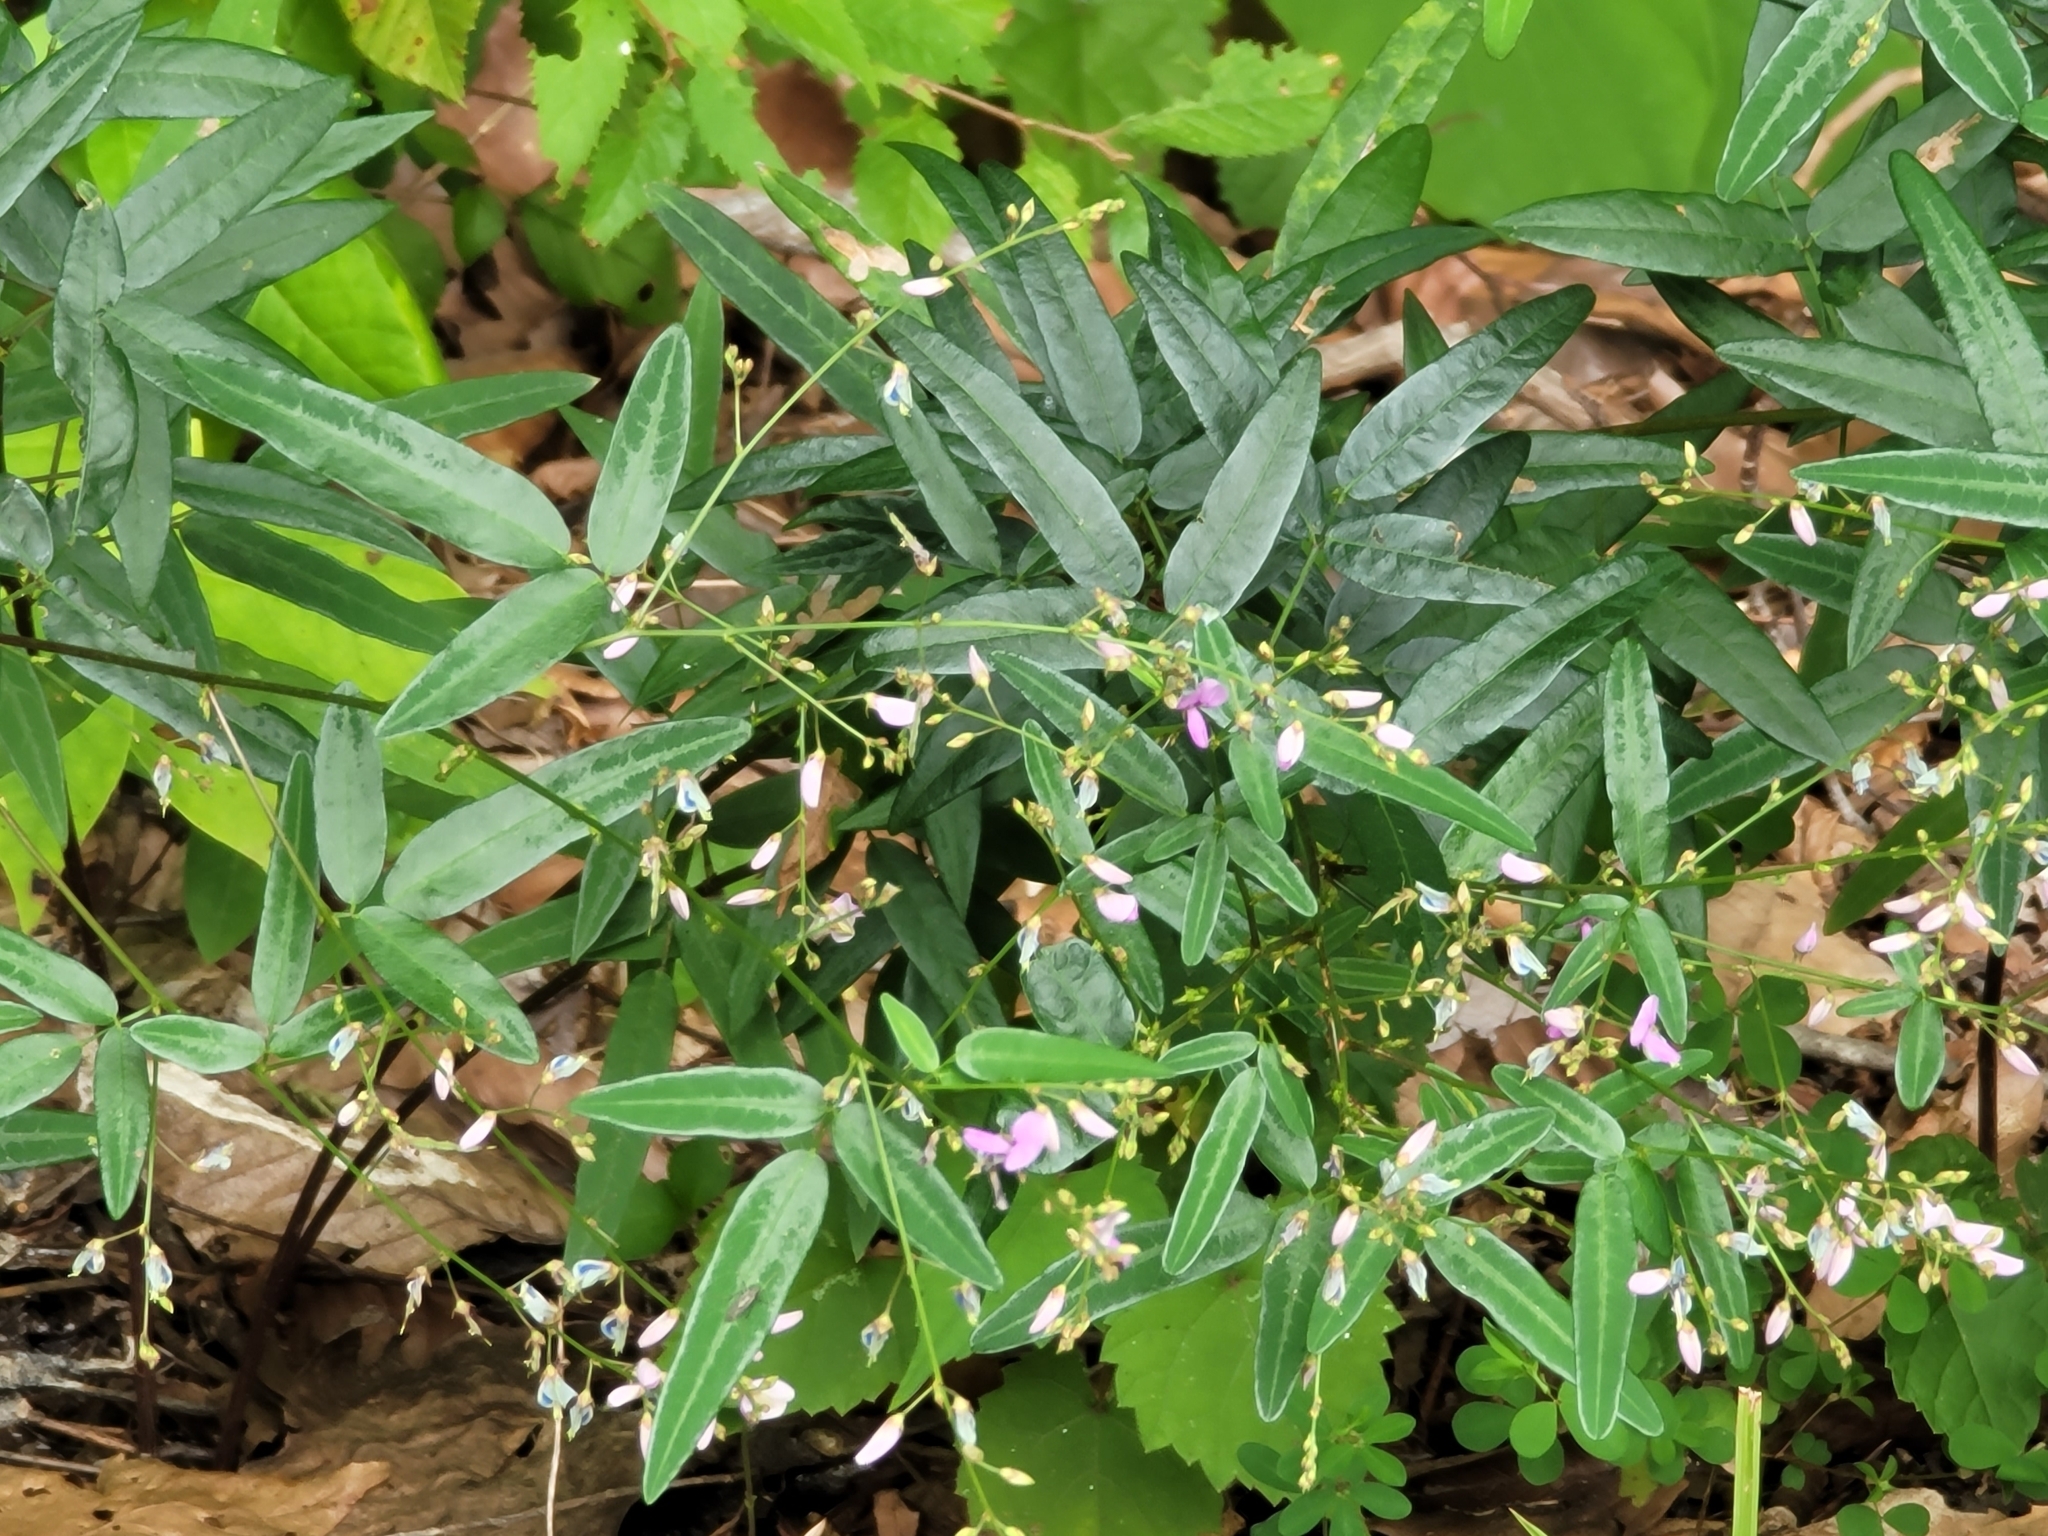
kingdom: Plantae
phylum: Tracheophyta
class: Magnoliopsida
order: Fabales
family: Fabaceae
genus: Desmodium
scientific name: Desmodium paniculatum
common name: Panicled tick-clover
